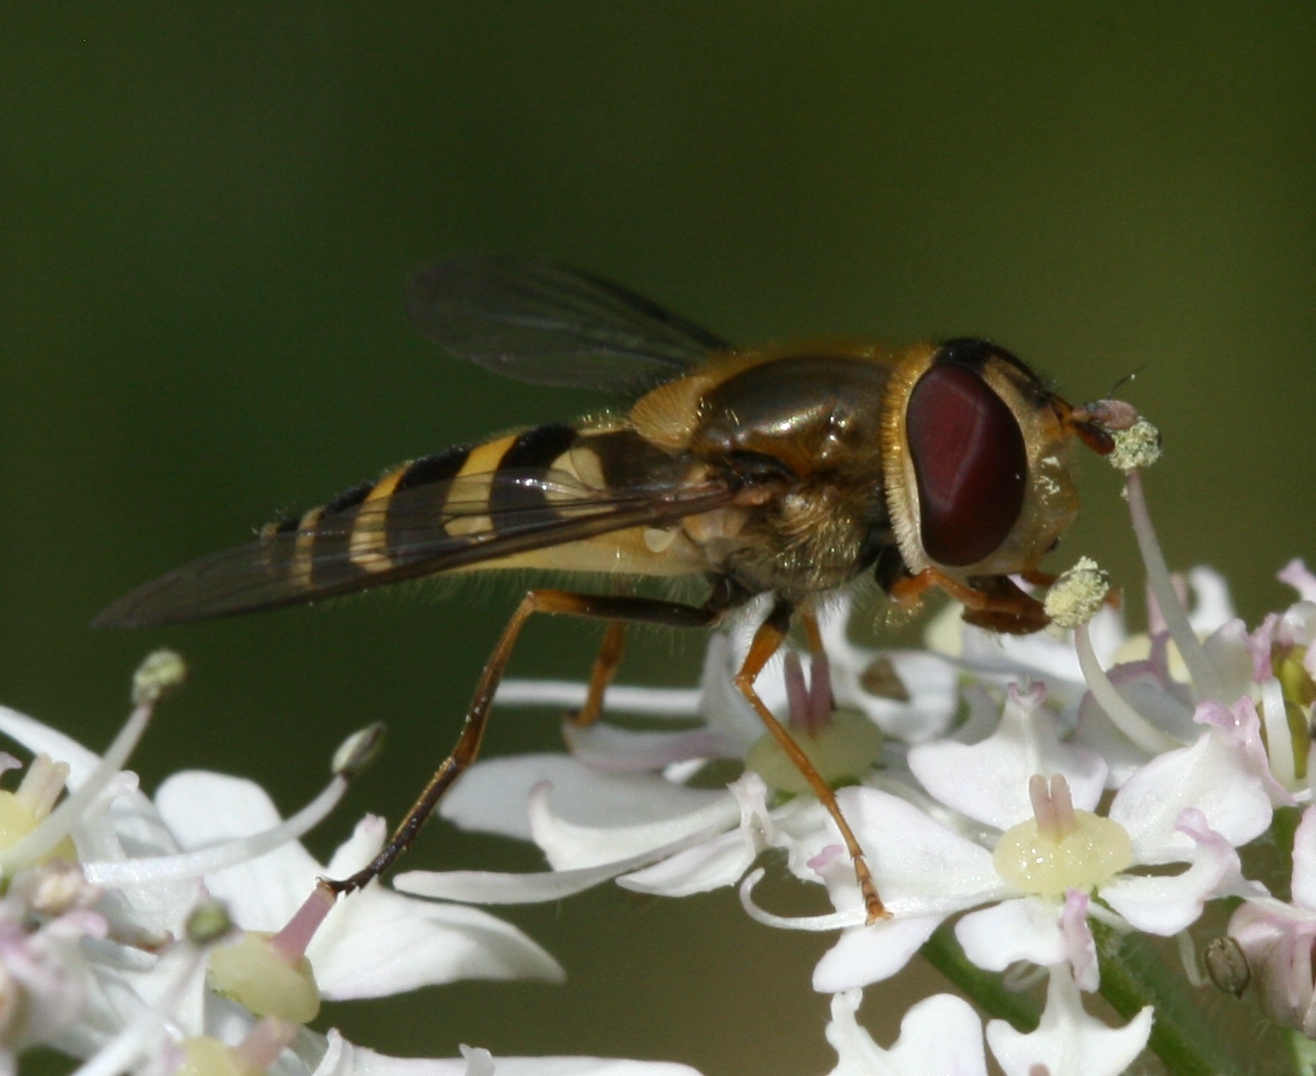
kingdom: Animalia
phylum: Arthropoda
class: Insecta
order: Diptera
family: Syrphidae
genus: Syrphus
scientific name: Syrphus
